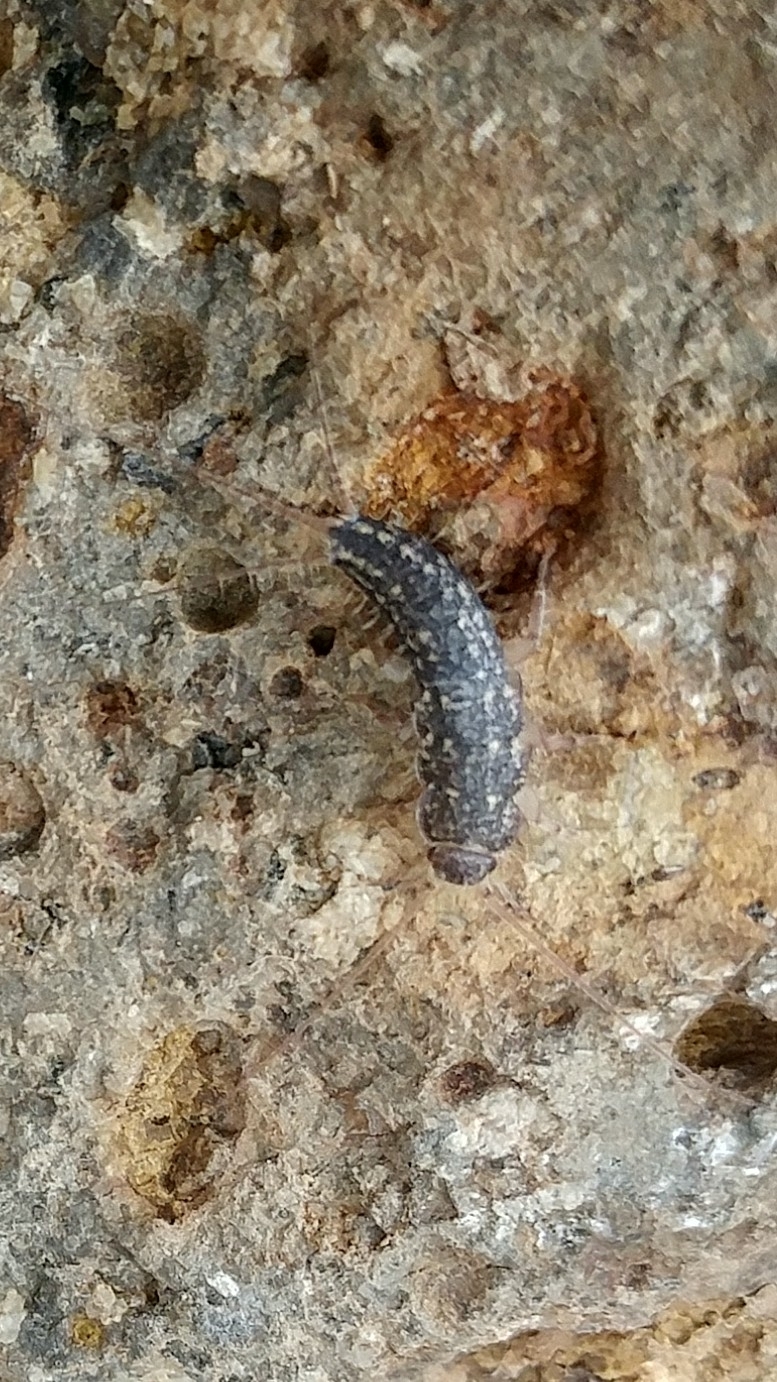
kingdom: Animalia
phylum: Arthropoda
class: Insecta
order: Zygentoma
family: Lepismatidae
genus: Ctenolepisma
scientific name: Ctenolepisma lineata
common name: Four-lined silverfish
